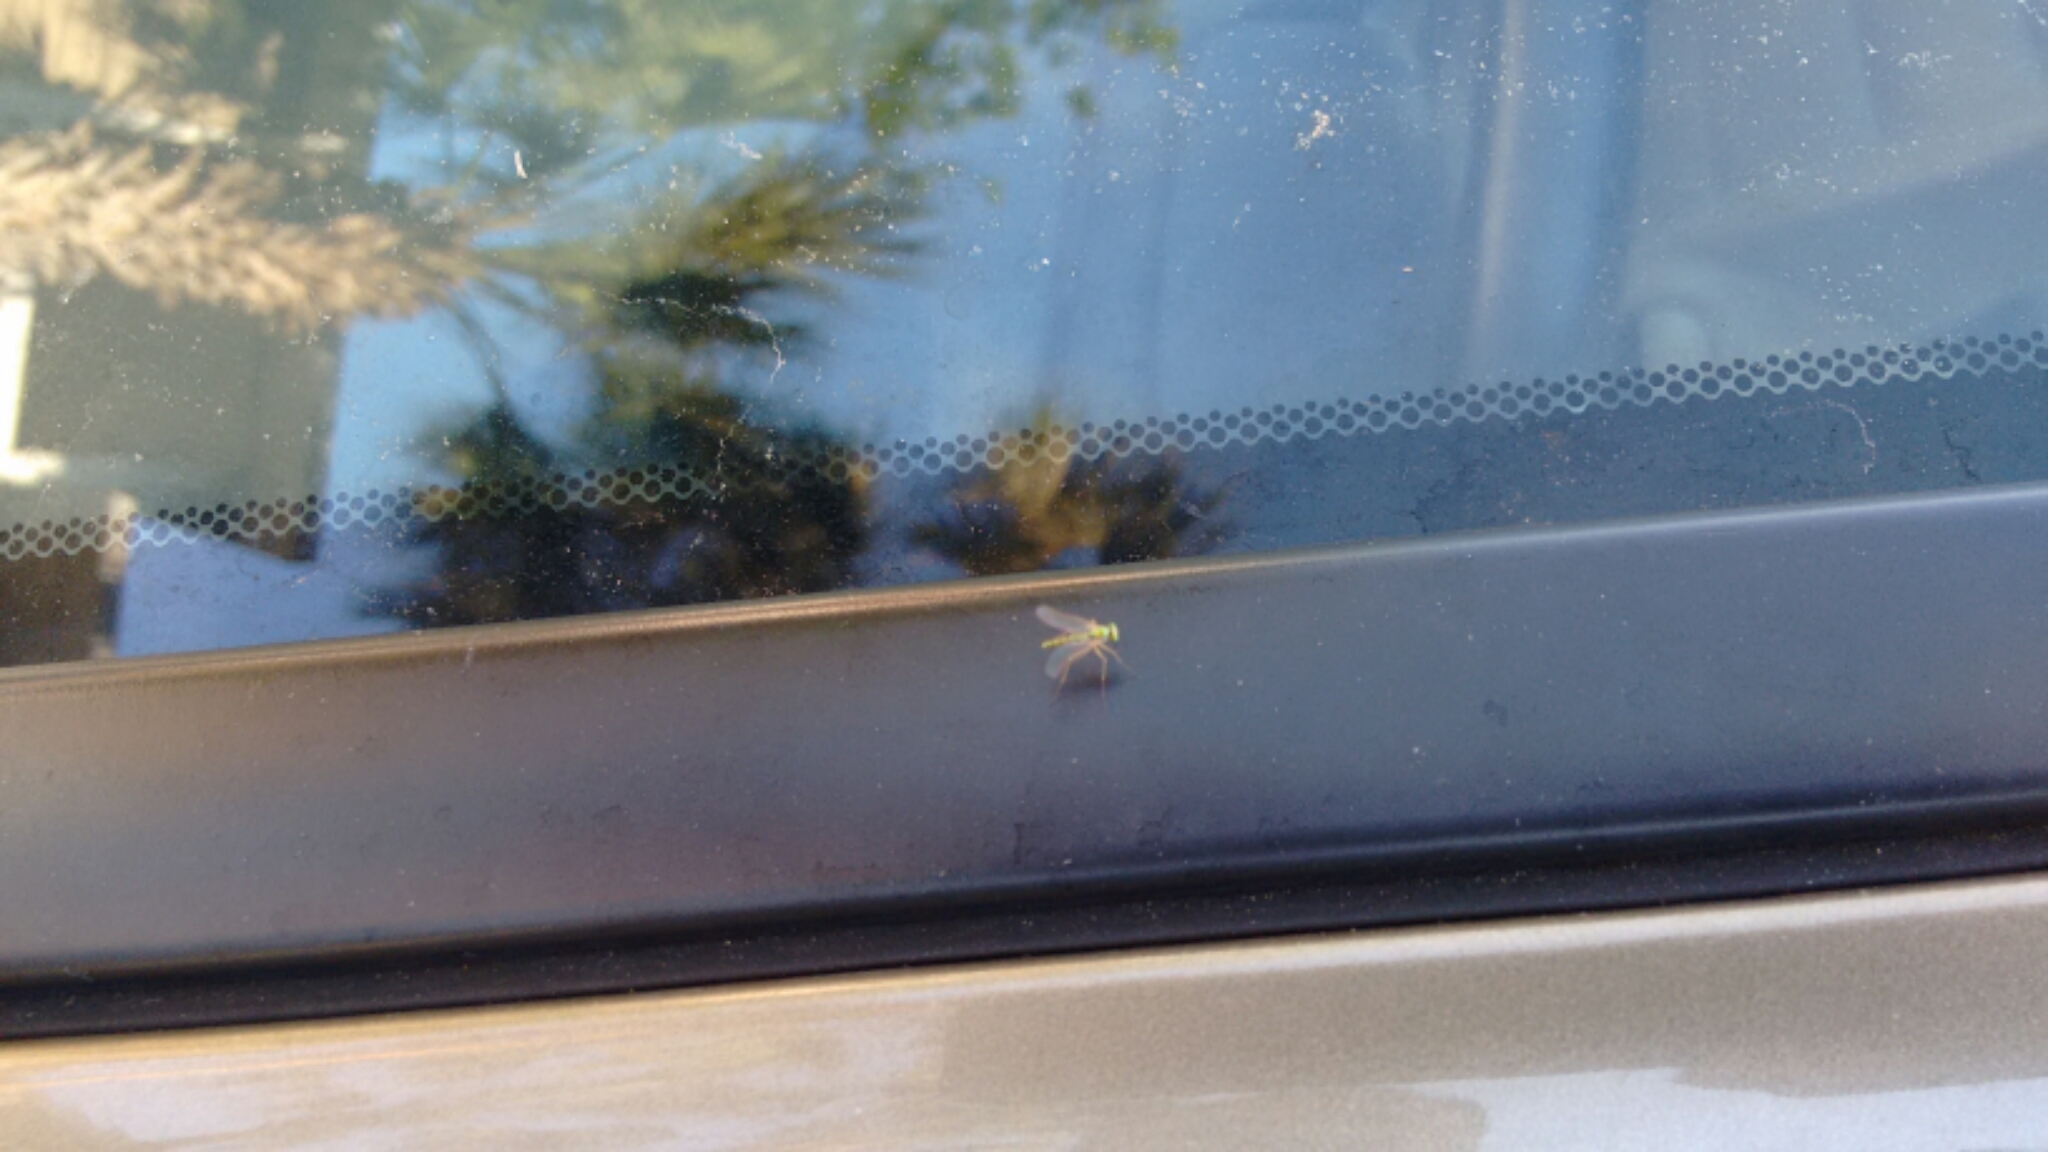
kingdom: Animalia
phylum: Arthropoda
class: Insecta
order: Diptera
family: Dolichopodidae
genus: Amblypsilopus
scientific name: Amblypsilopus psittacinus
